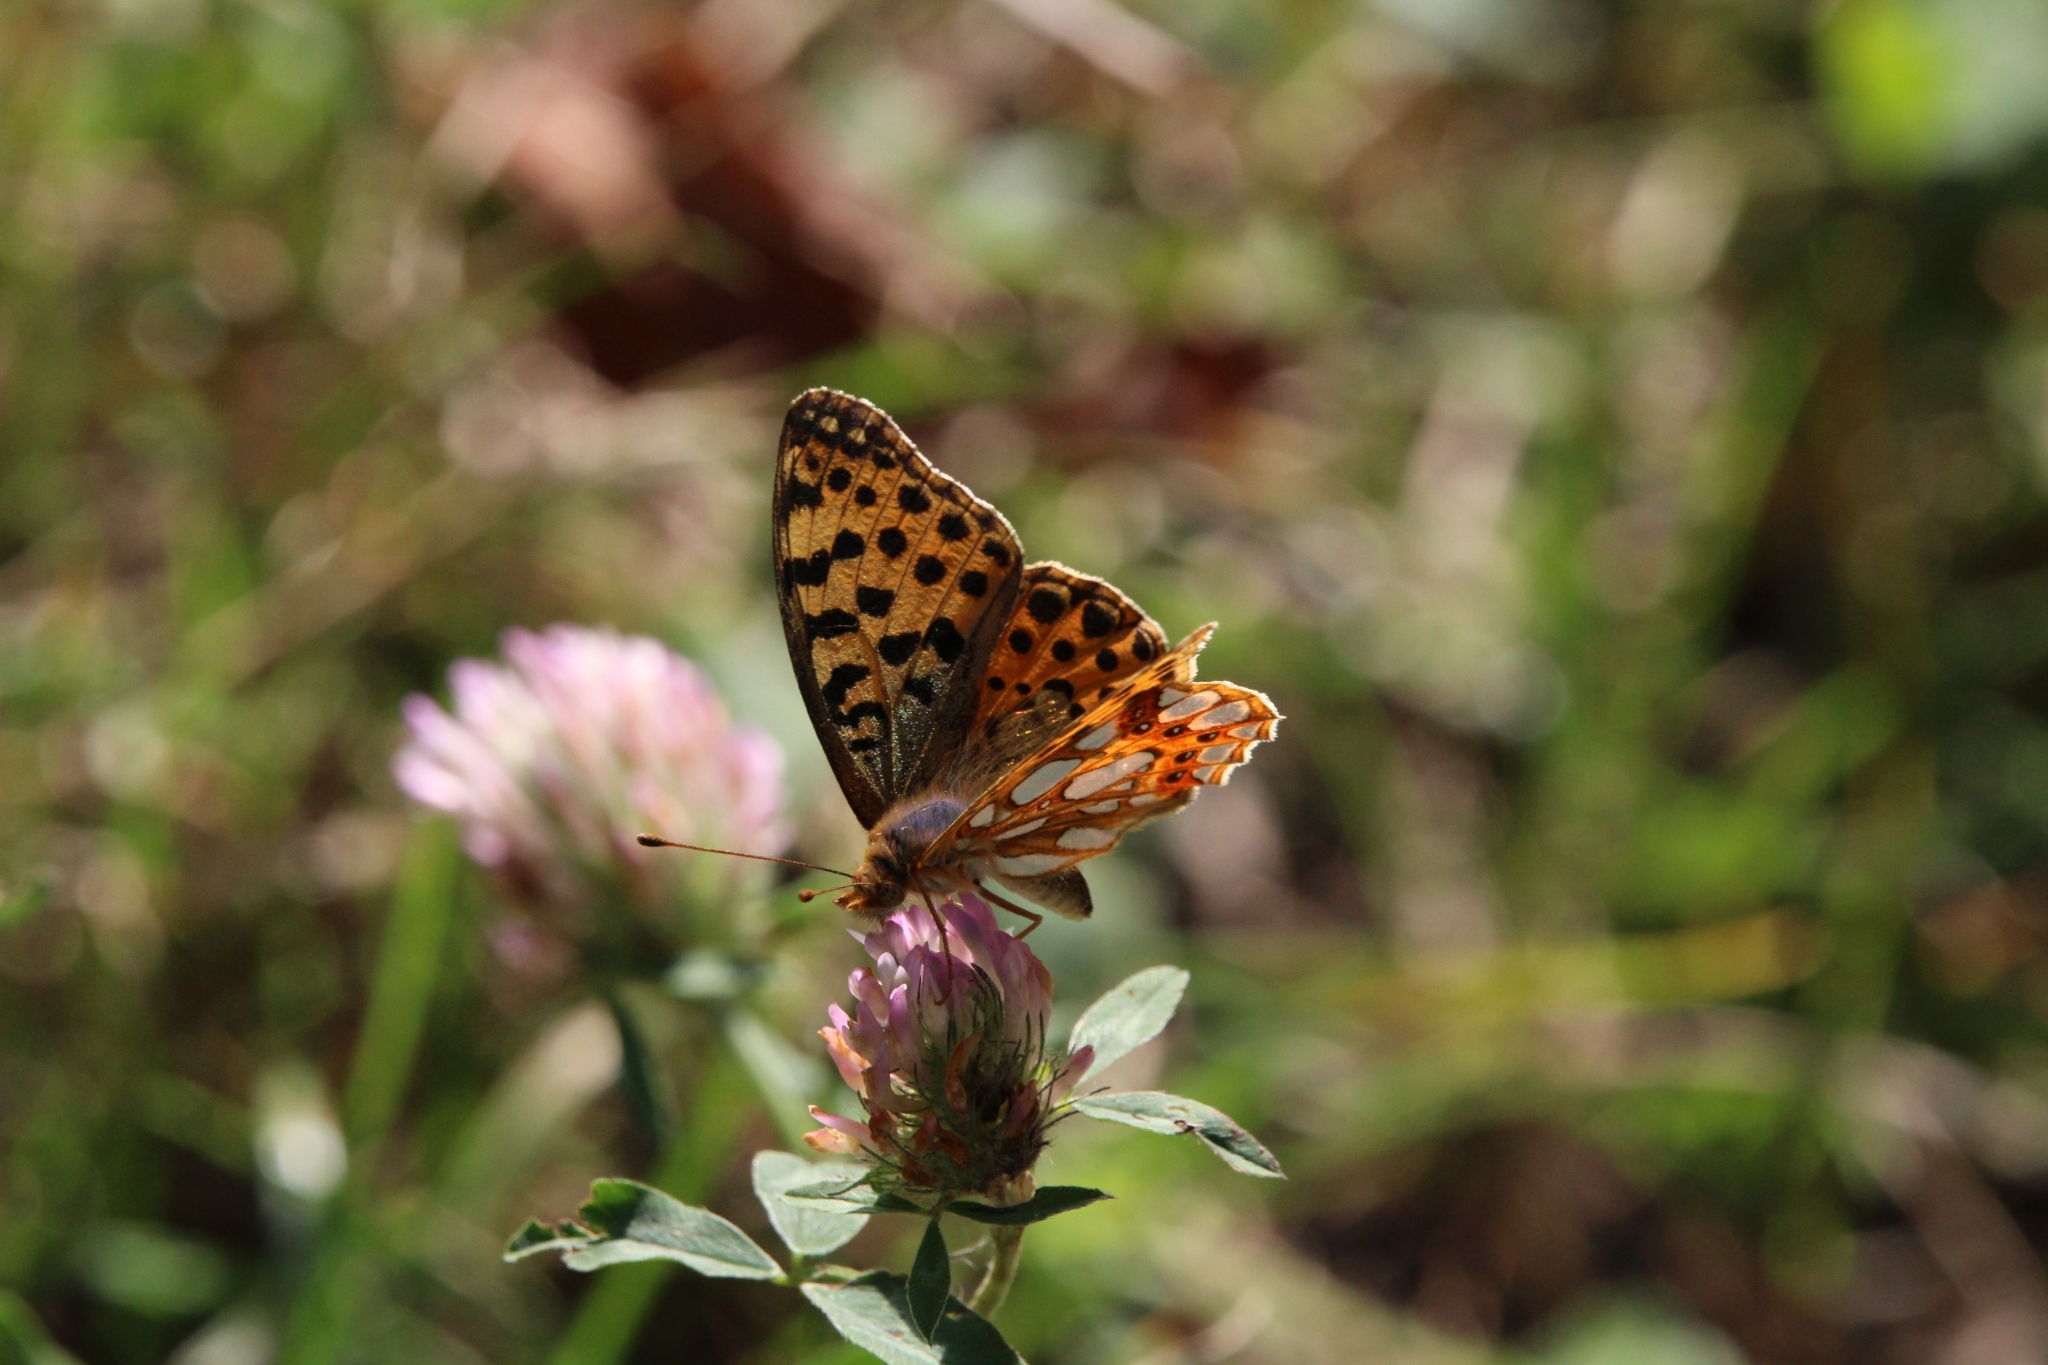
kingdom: Animalia
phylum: Arthropoda
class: Insecta
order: Lepidoptera
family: Nymphalidae
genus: Issoria
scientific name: Issoria lathonia
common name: Queen of spain fritillary
